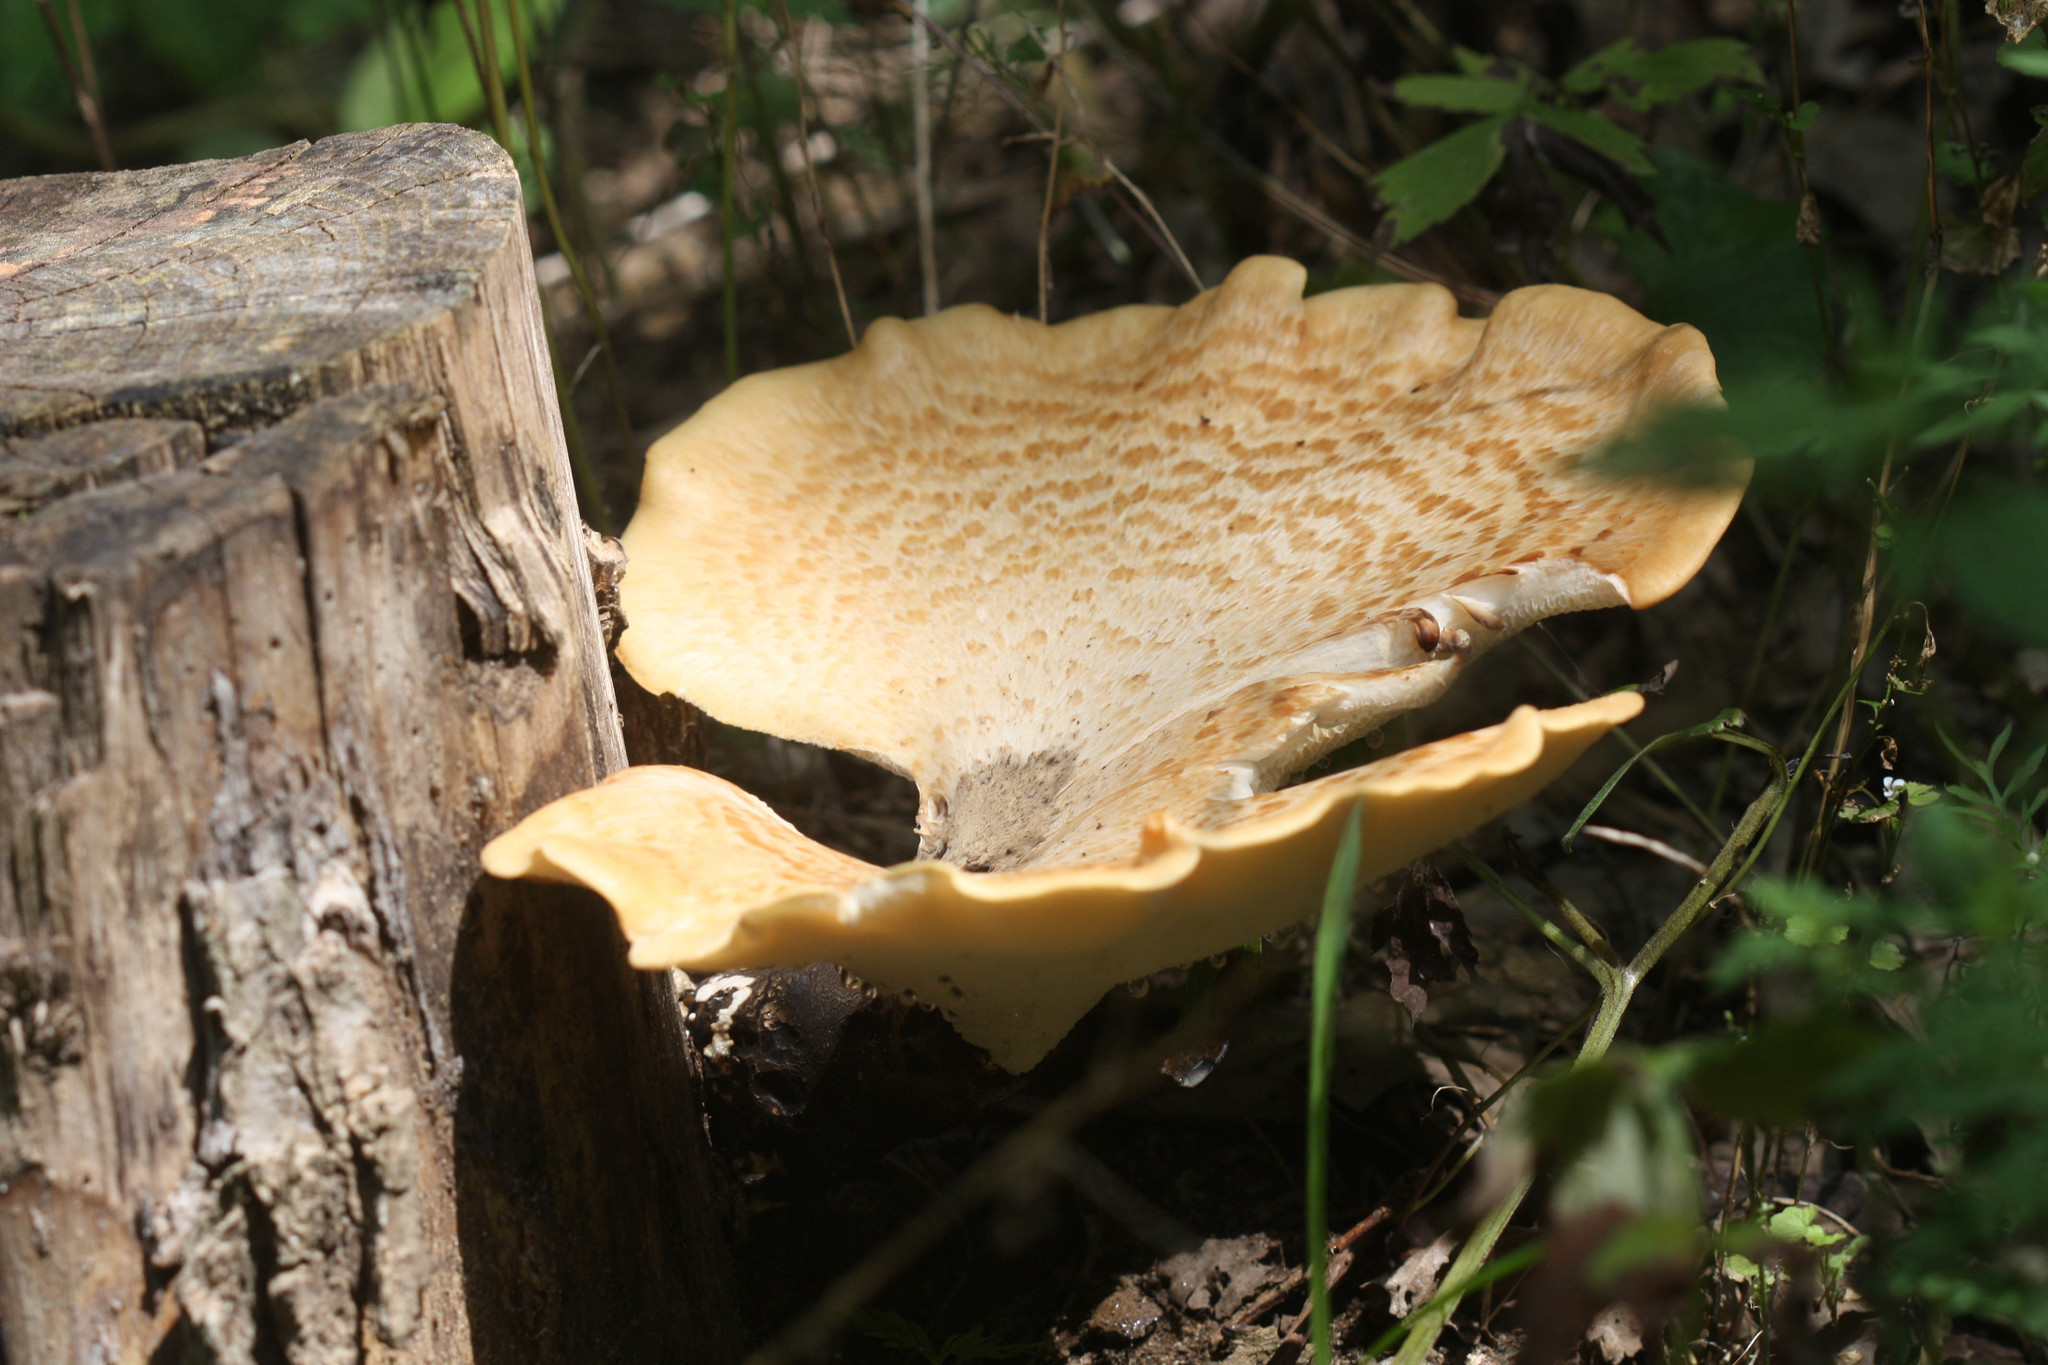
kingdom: Fungi
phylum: Basidiomycota
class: Agaricomycetes
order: Polyporales
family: Polyporaceae
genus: Cerioporus
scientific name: Cerioporus squamosus
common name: Dryad's saddle
